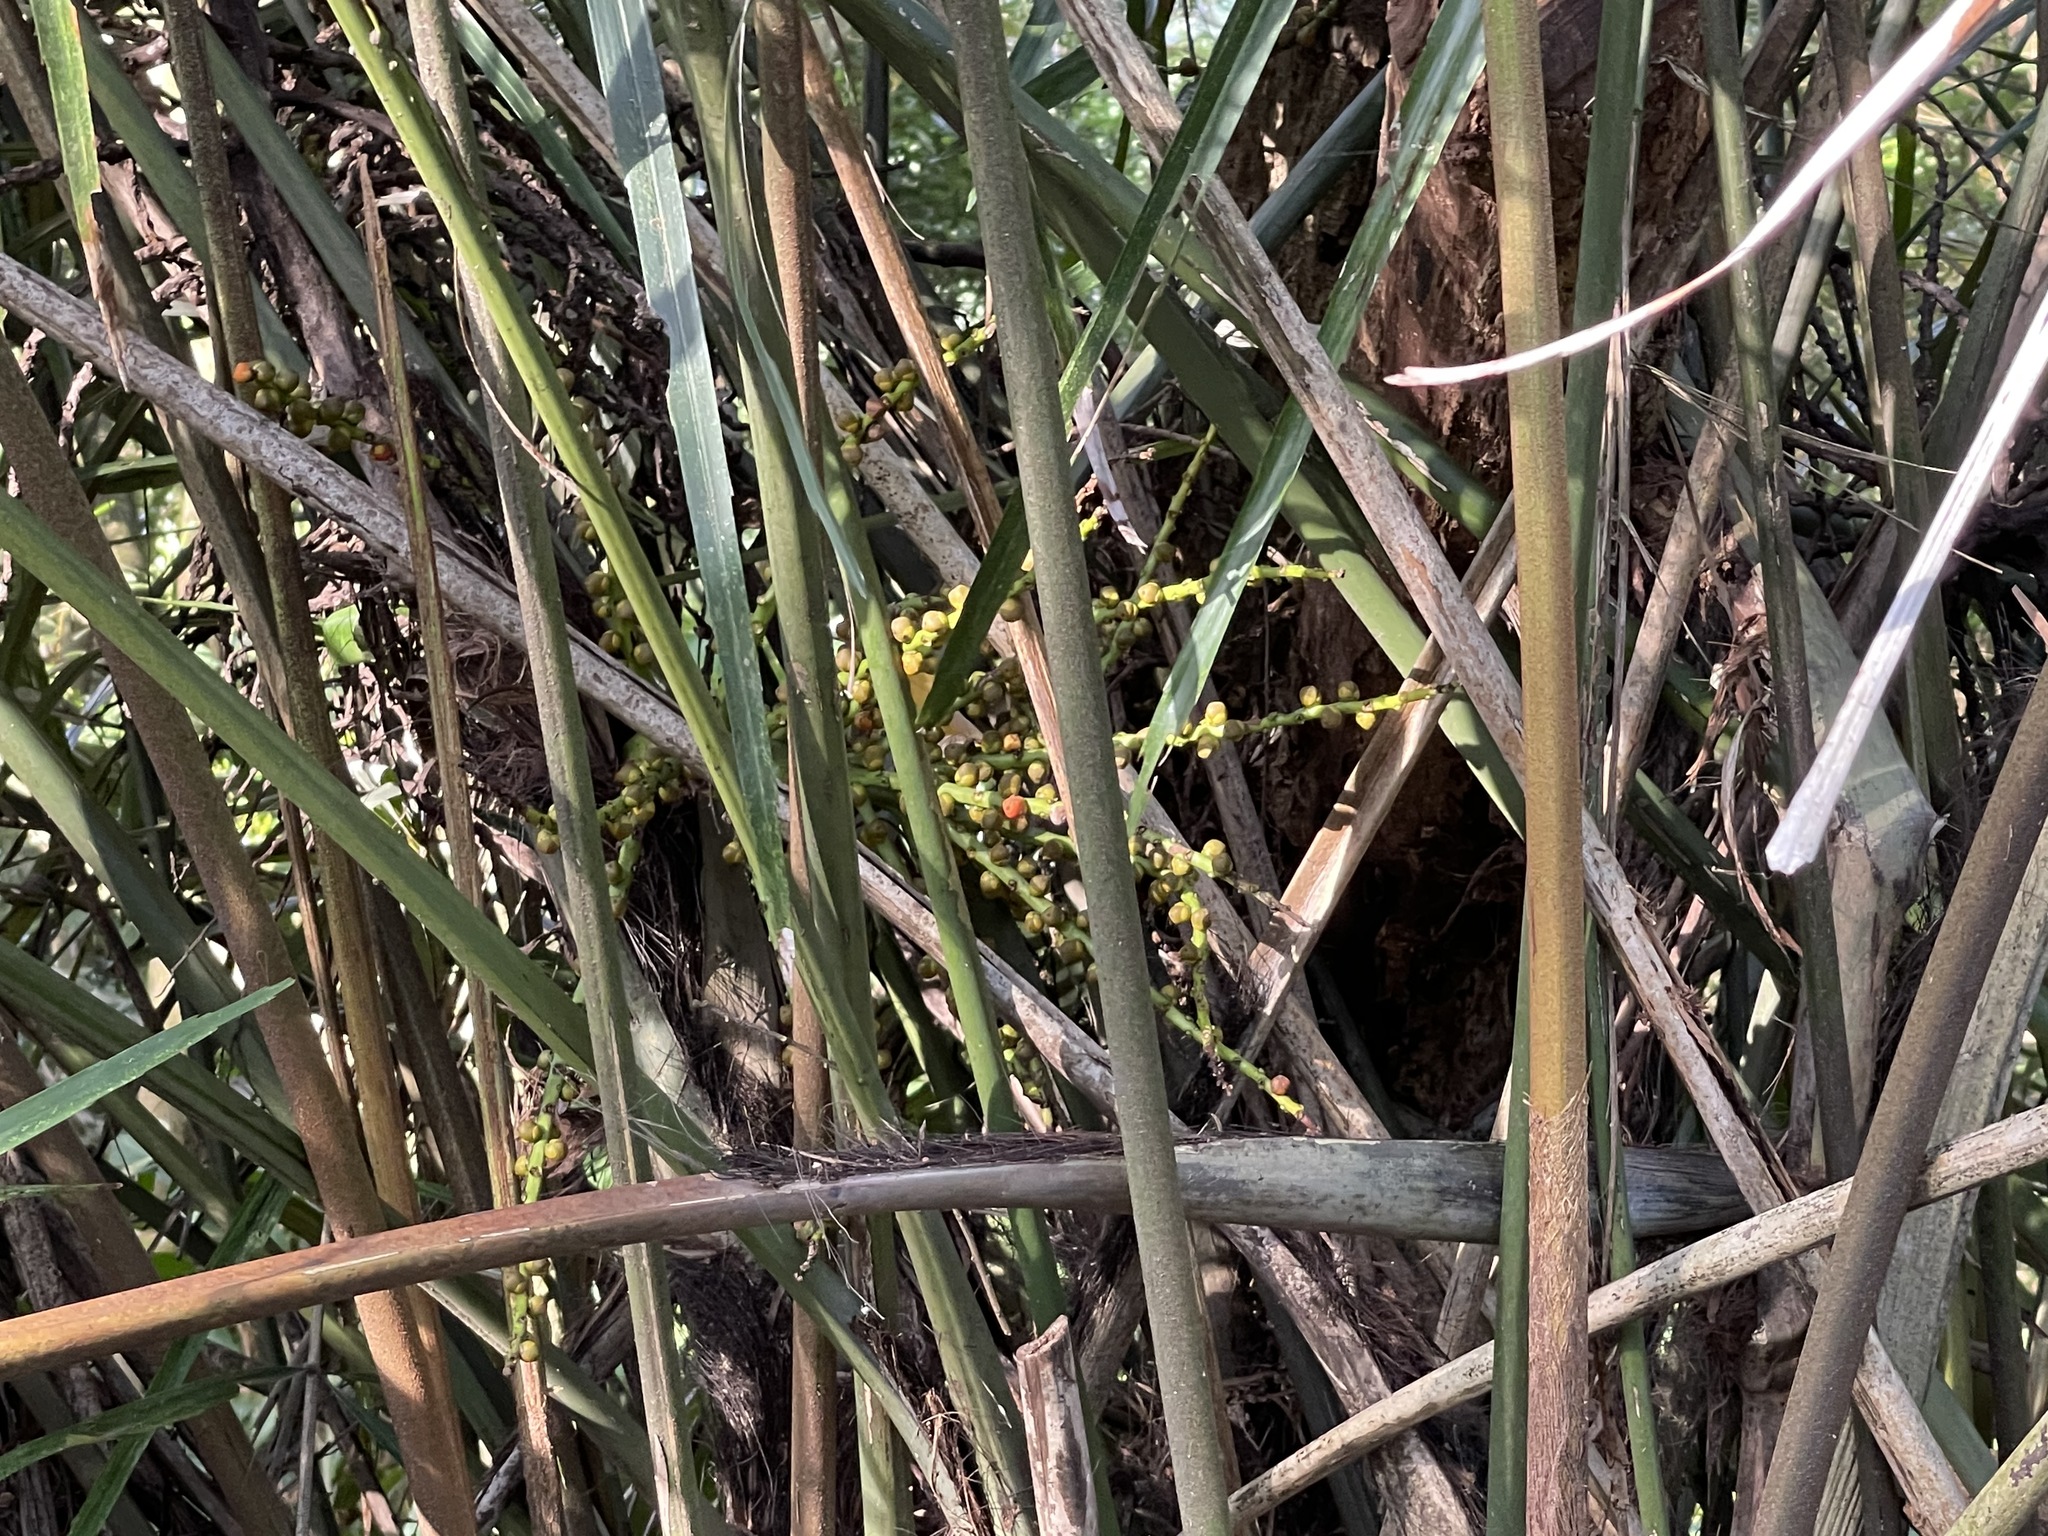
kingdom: Plantae
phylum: Tracheophyta
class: Liliopsida
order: Arecales
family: Arecaceae
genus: Arenga
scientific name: Arenga engleri
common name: Formosan sugar palm
